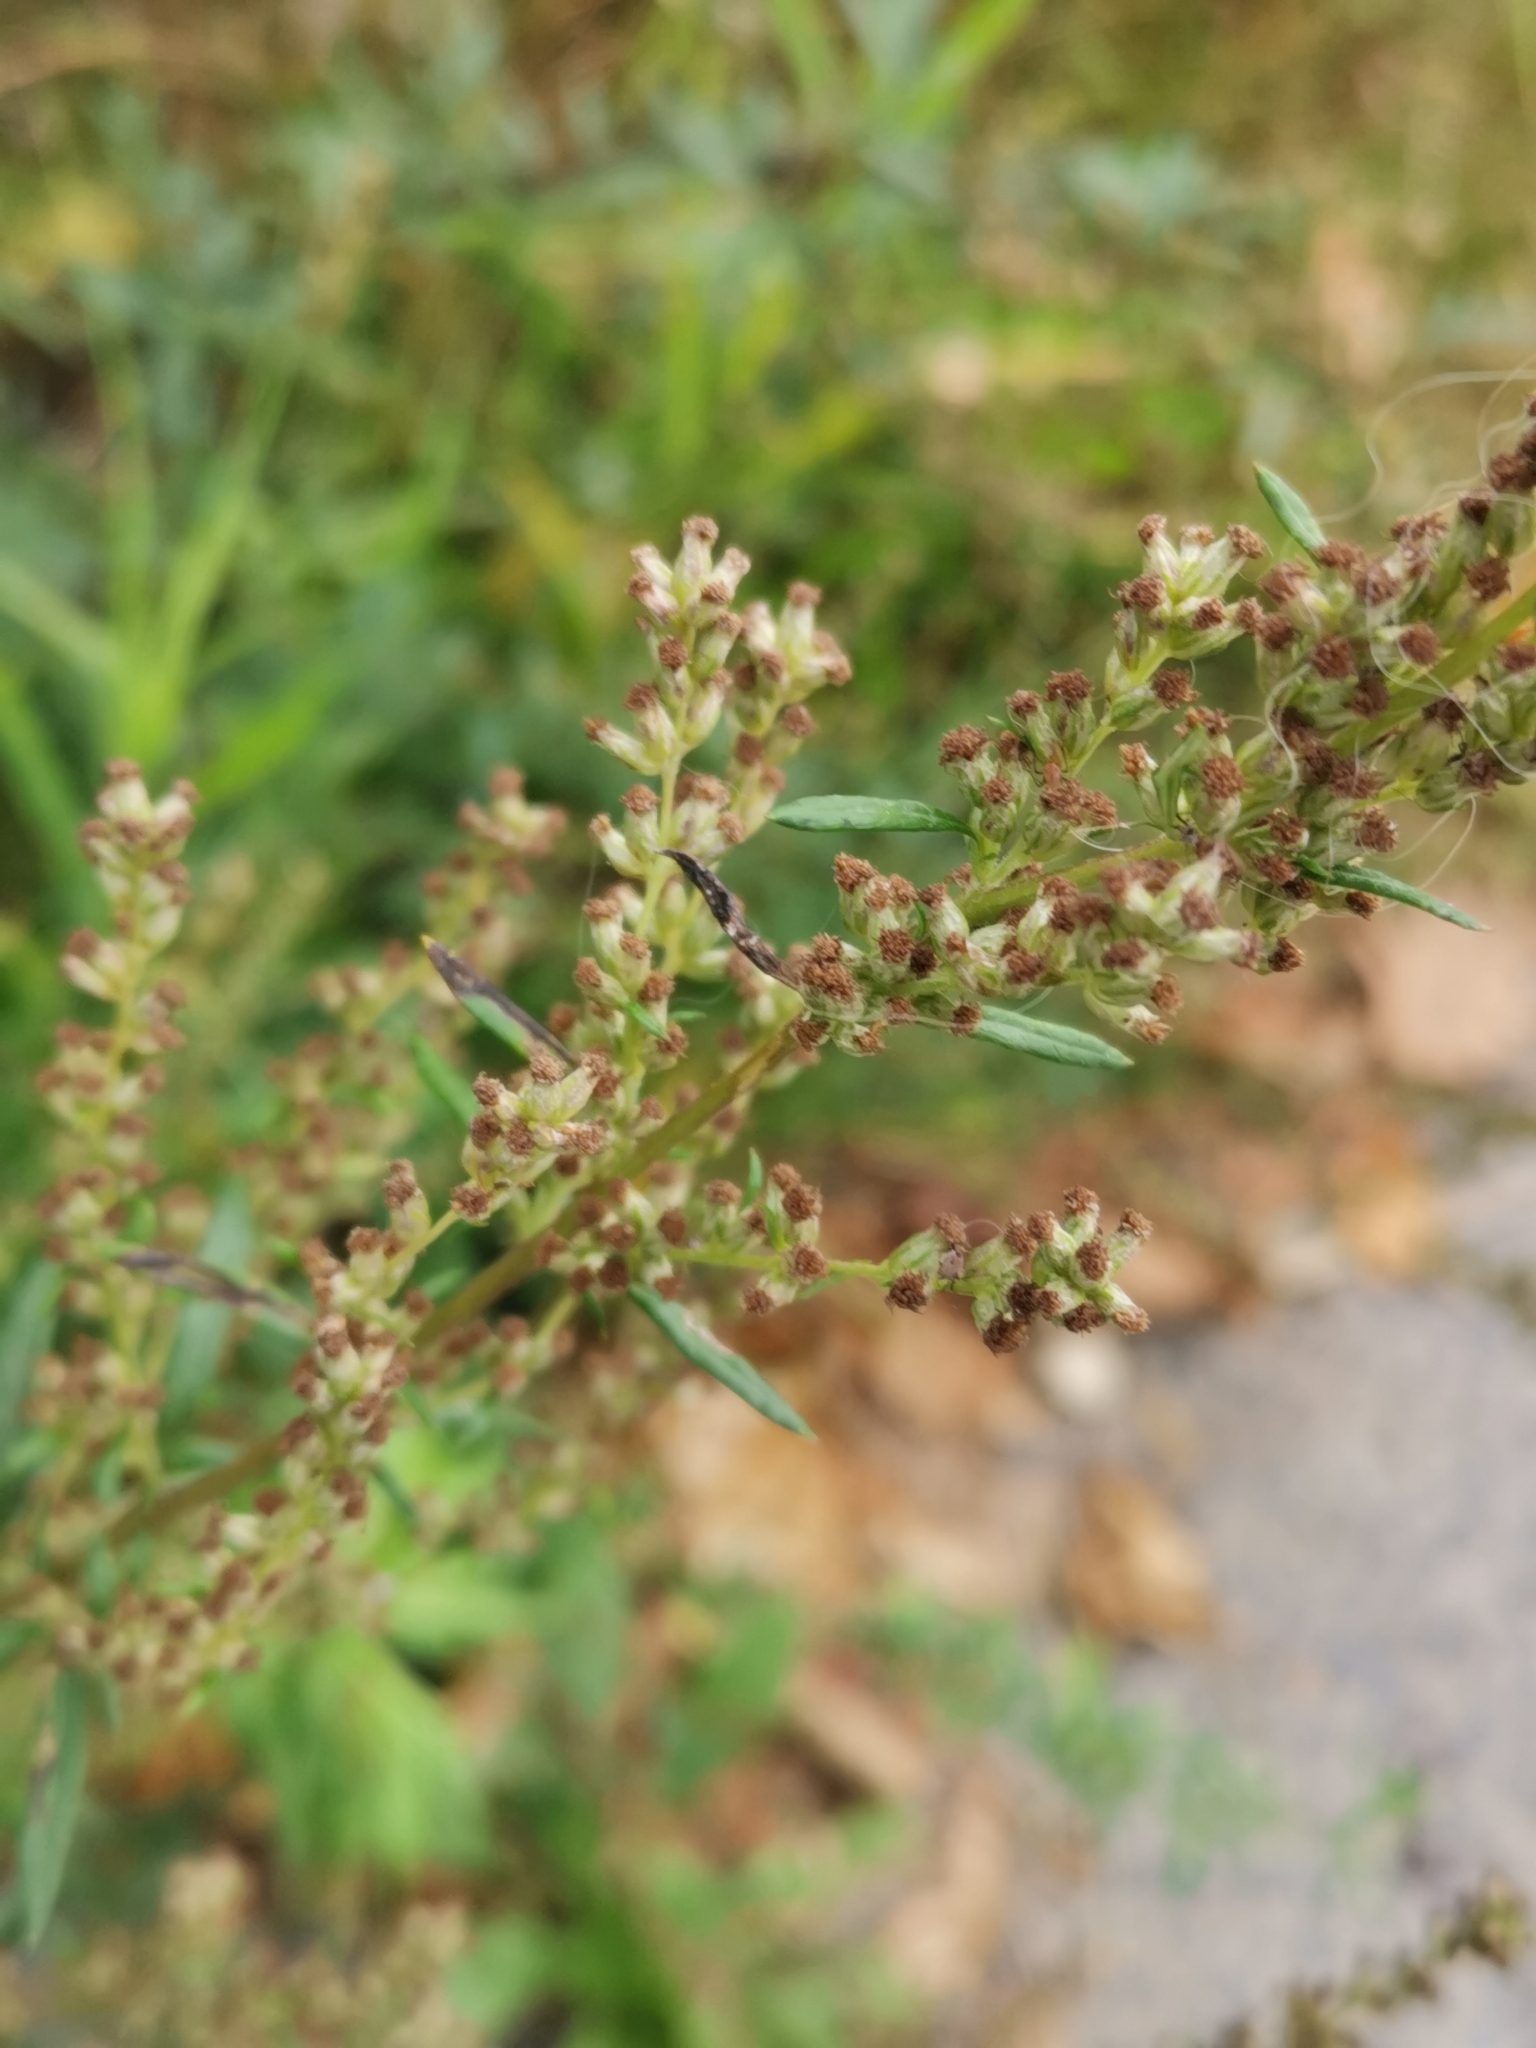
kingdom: Plantae
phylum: Tracheophyta
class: Magnoliopsida
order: Asterales
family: Asteraceae
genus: Artemisia
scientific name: Artemisia vulgaris
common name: Mugwort
